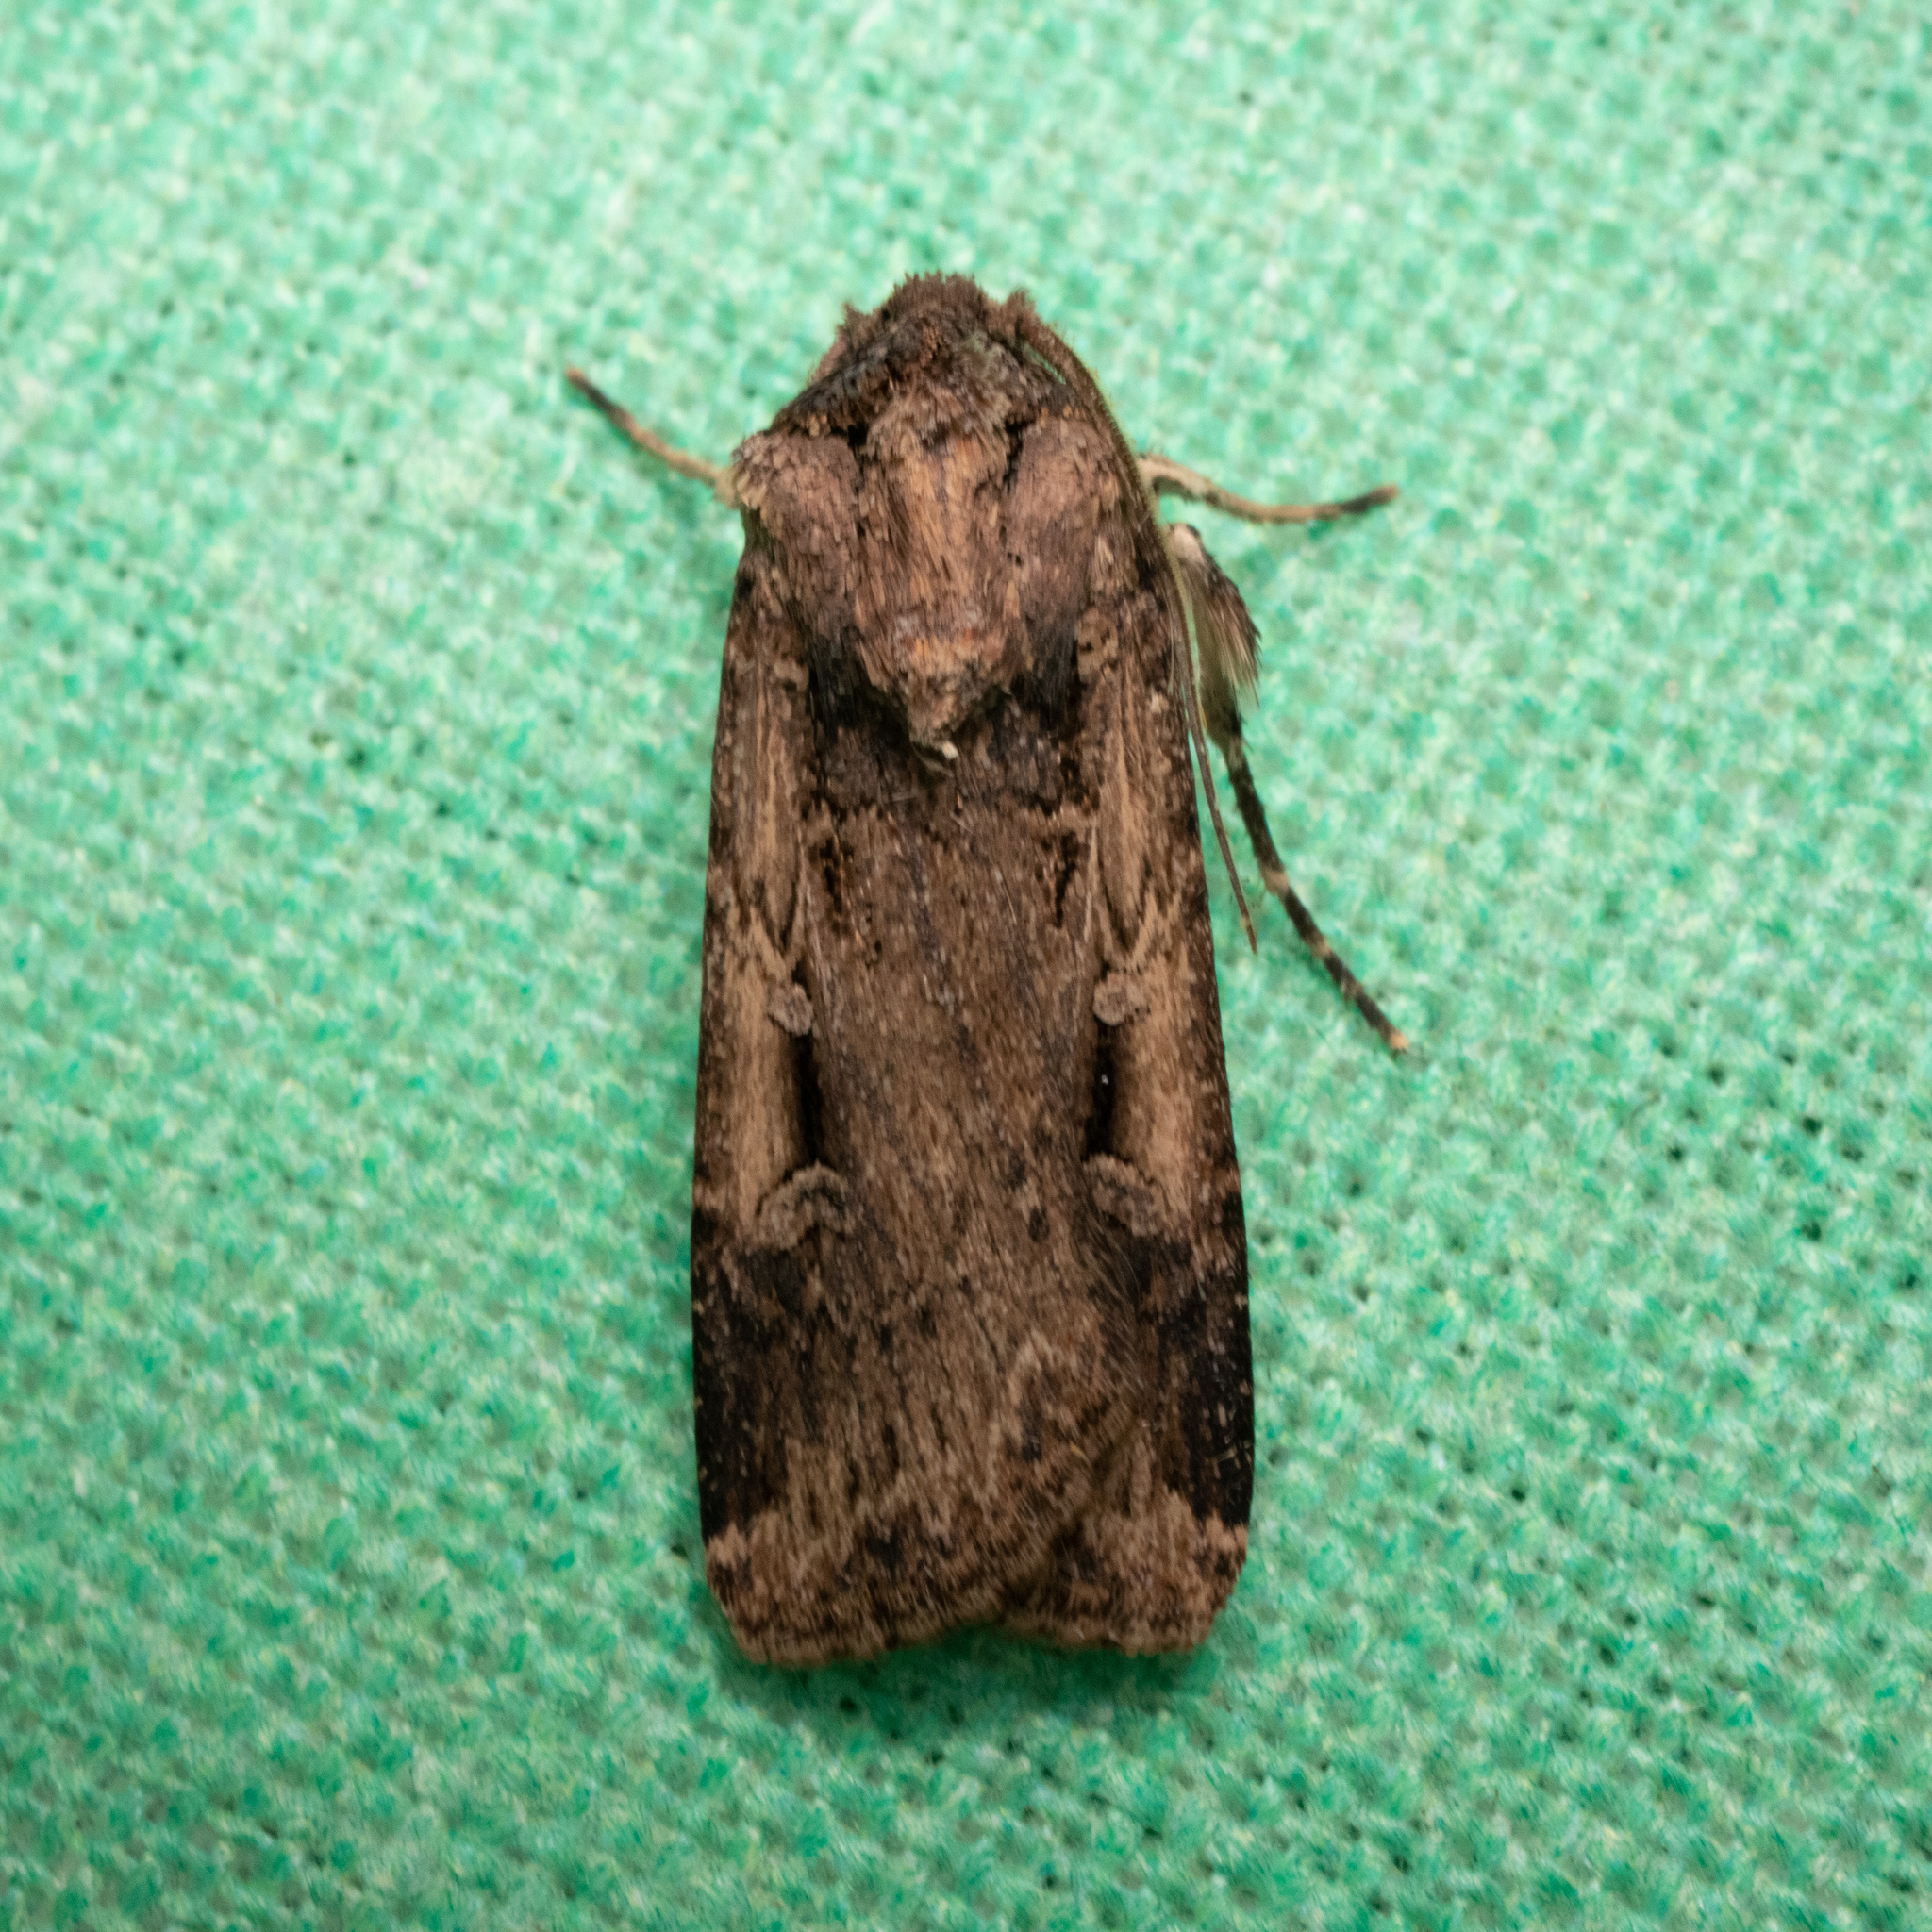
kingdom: Animalia
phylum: Arthropoda
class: Insecta
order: Lepidoptera
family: Noctuidae
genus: Feltia
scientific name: Feltia subterranea
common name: Granulate cutworm
